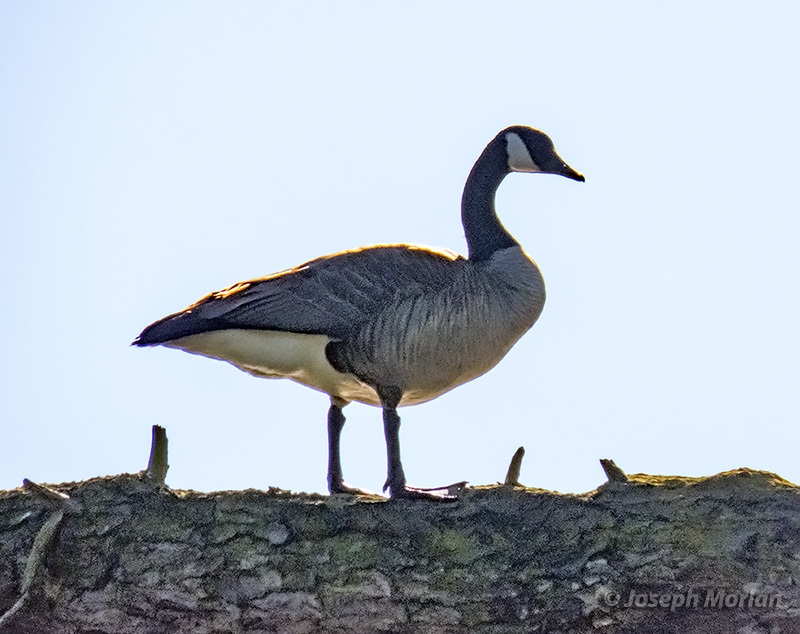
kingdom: Animalia
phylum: Chordata
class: Aves
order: Anseriformes
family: Anatidae
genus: Branta
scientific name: Branta canadensis
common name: Canada goose
